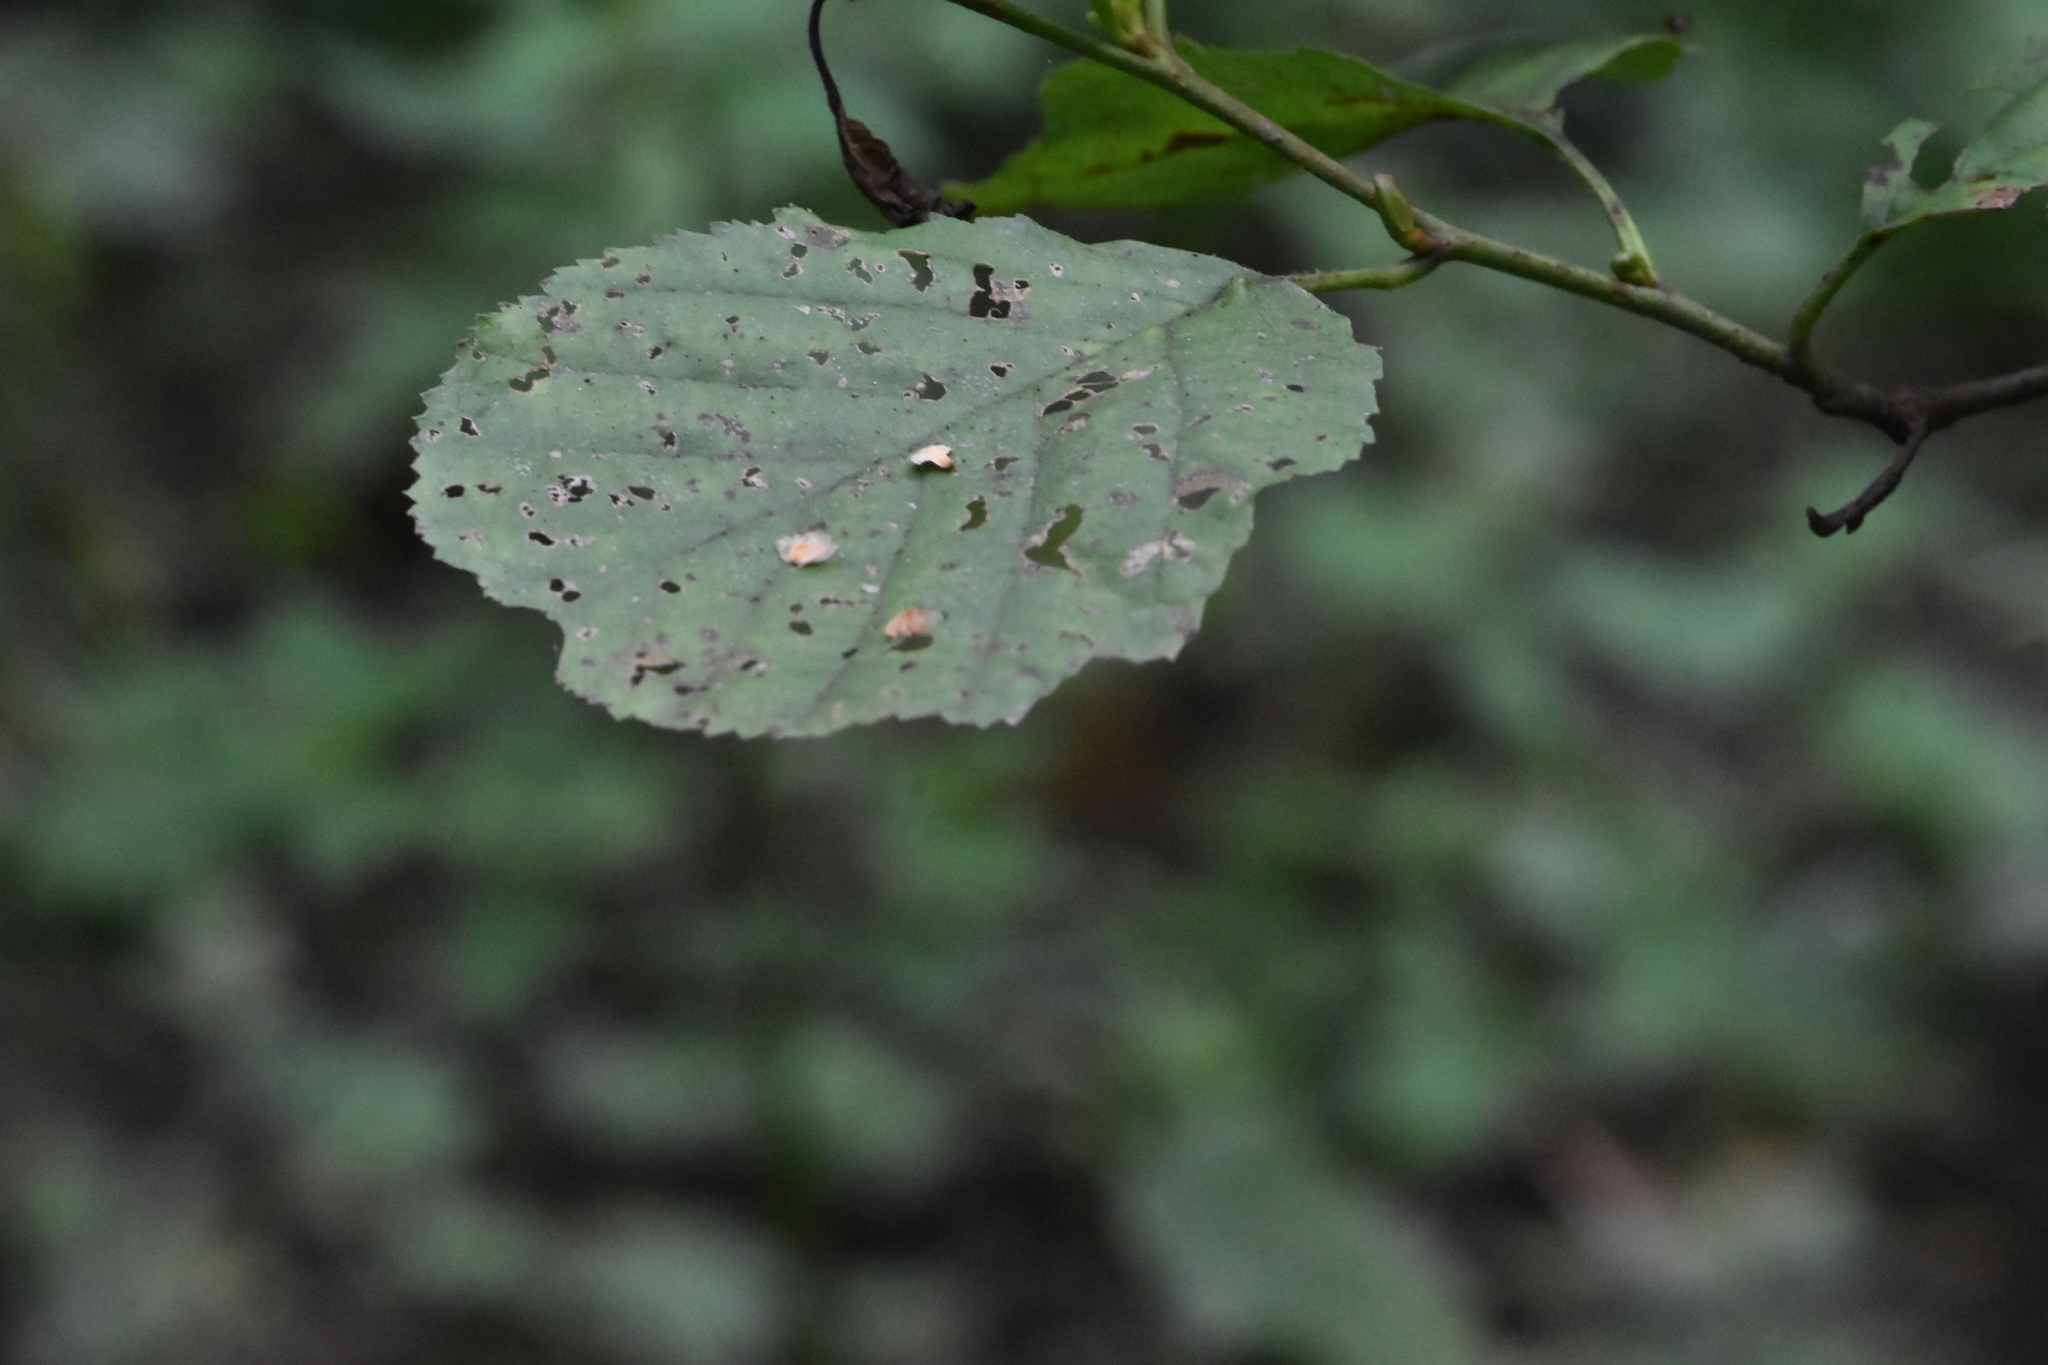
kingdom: Plantae
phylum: Tracheophyta
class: Magnoliopsida
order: Fagales
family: Betulaceae
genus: Alnus
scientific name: Alnus glutinosa
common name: Black alder
